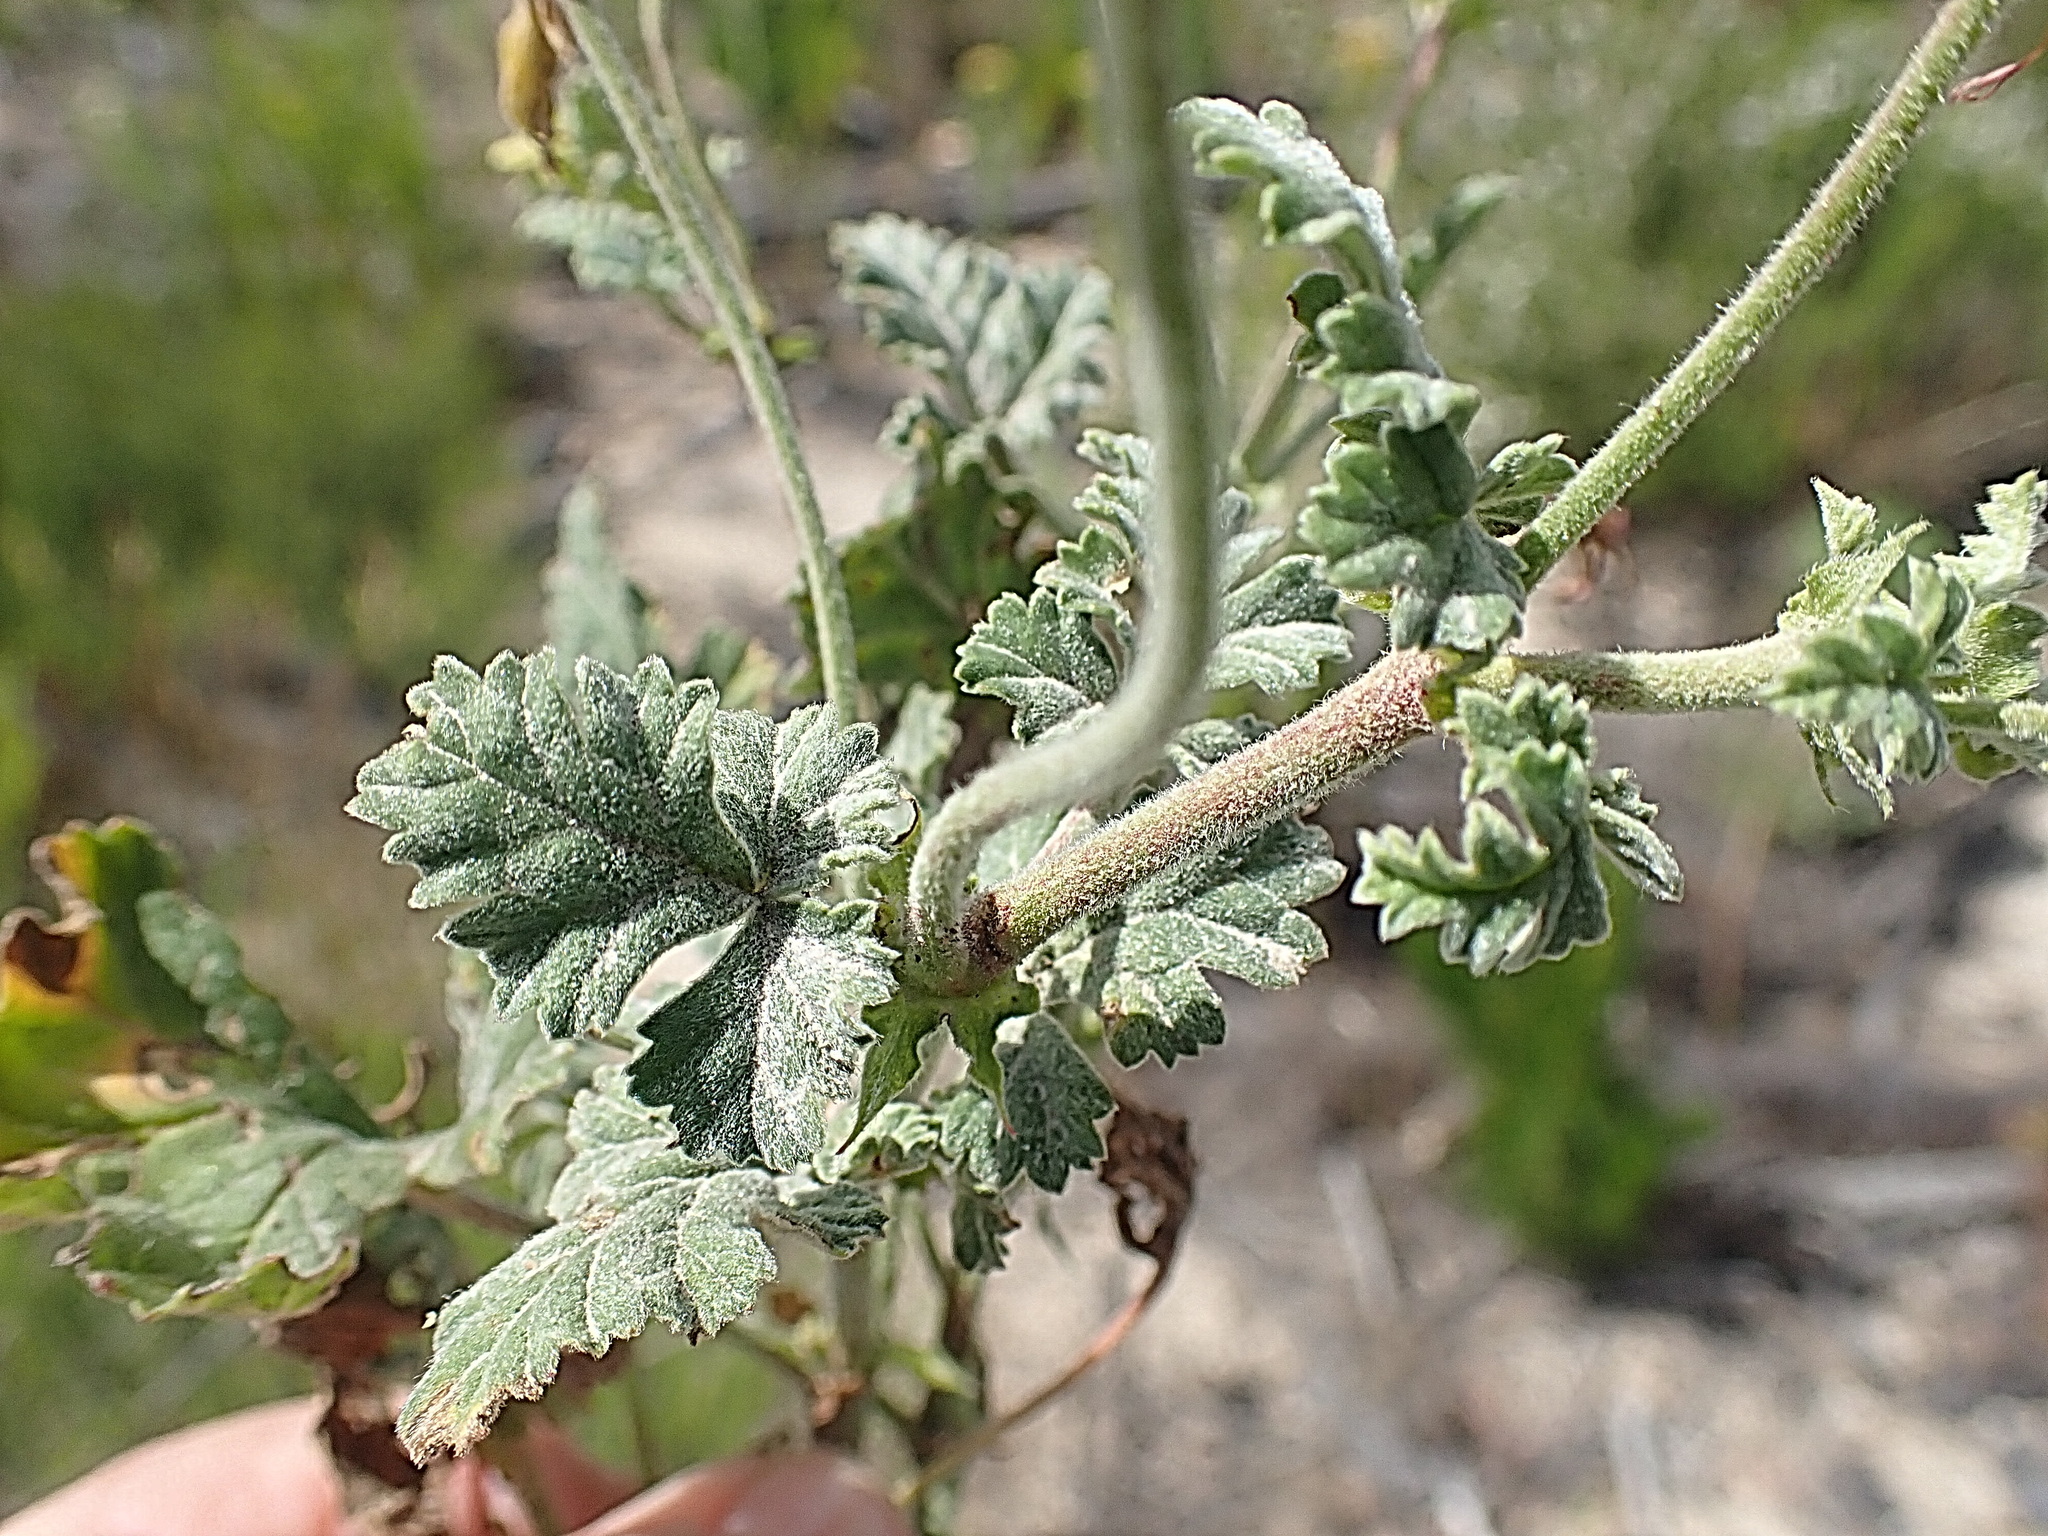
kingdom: Plantae
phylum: Tracheophyta
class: Magnoliopsida
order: Geraniales
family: Geraniaceae
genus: Pelargonium
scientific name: Pelargonium candicans
